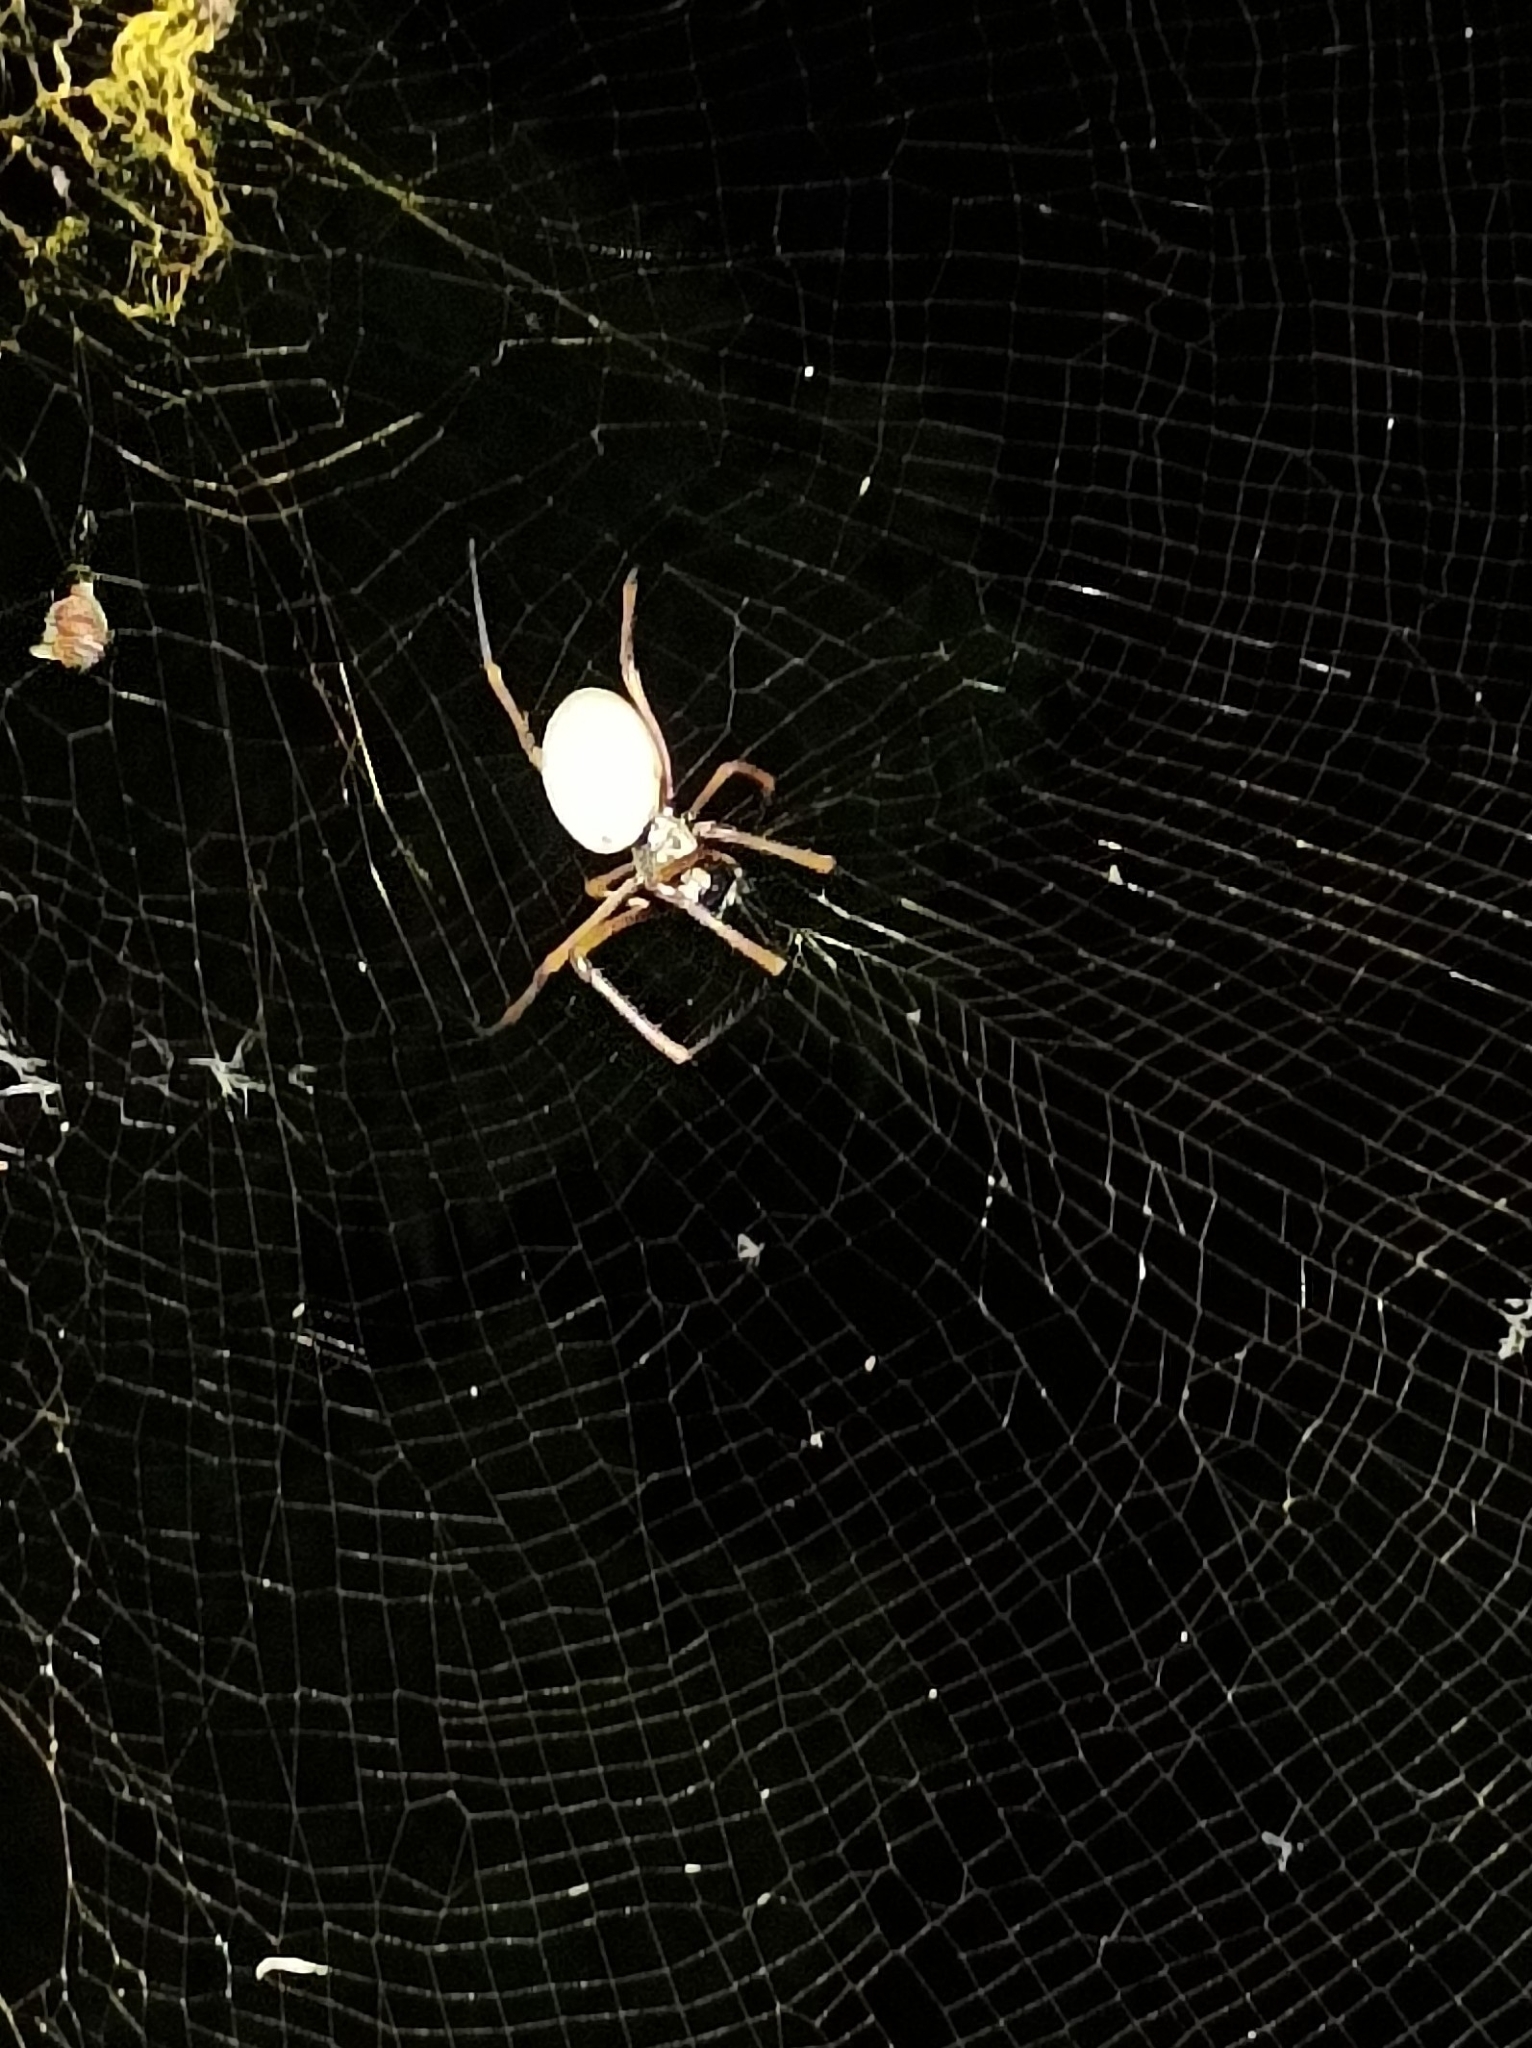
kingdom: Animalia
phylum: Arthropoda
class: Arachnida
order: Araneae
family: Araneidae
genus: Trichonephila
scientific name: Trichonephila plumipes
